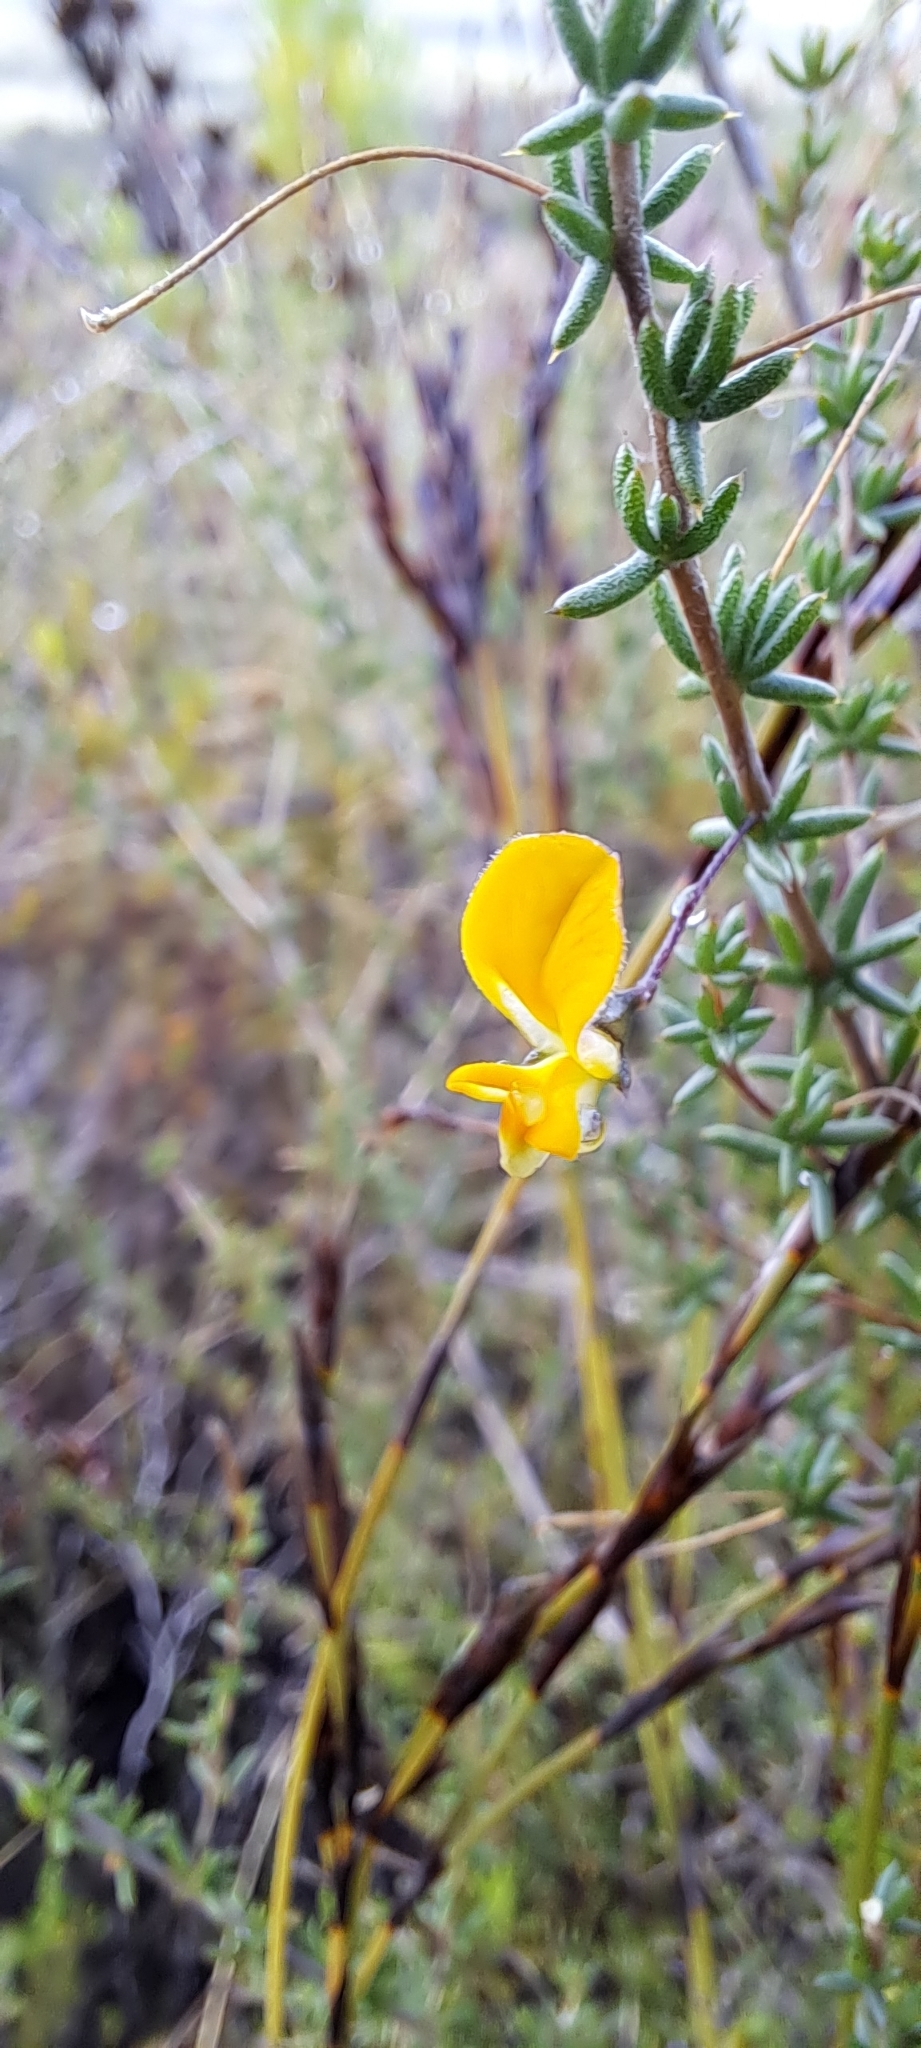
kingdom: Plantae
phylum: Tracheophyta
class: Magnoliopsida
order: Fabales
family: Fabaceae
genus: Aspalathus
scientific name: Aspalathus serpens
